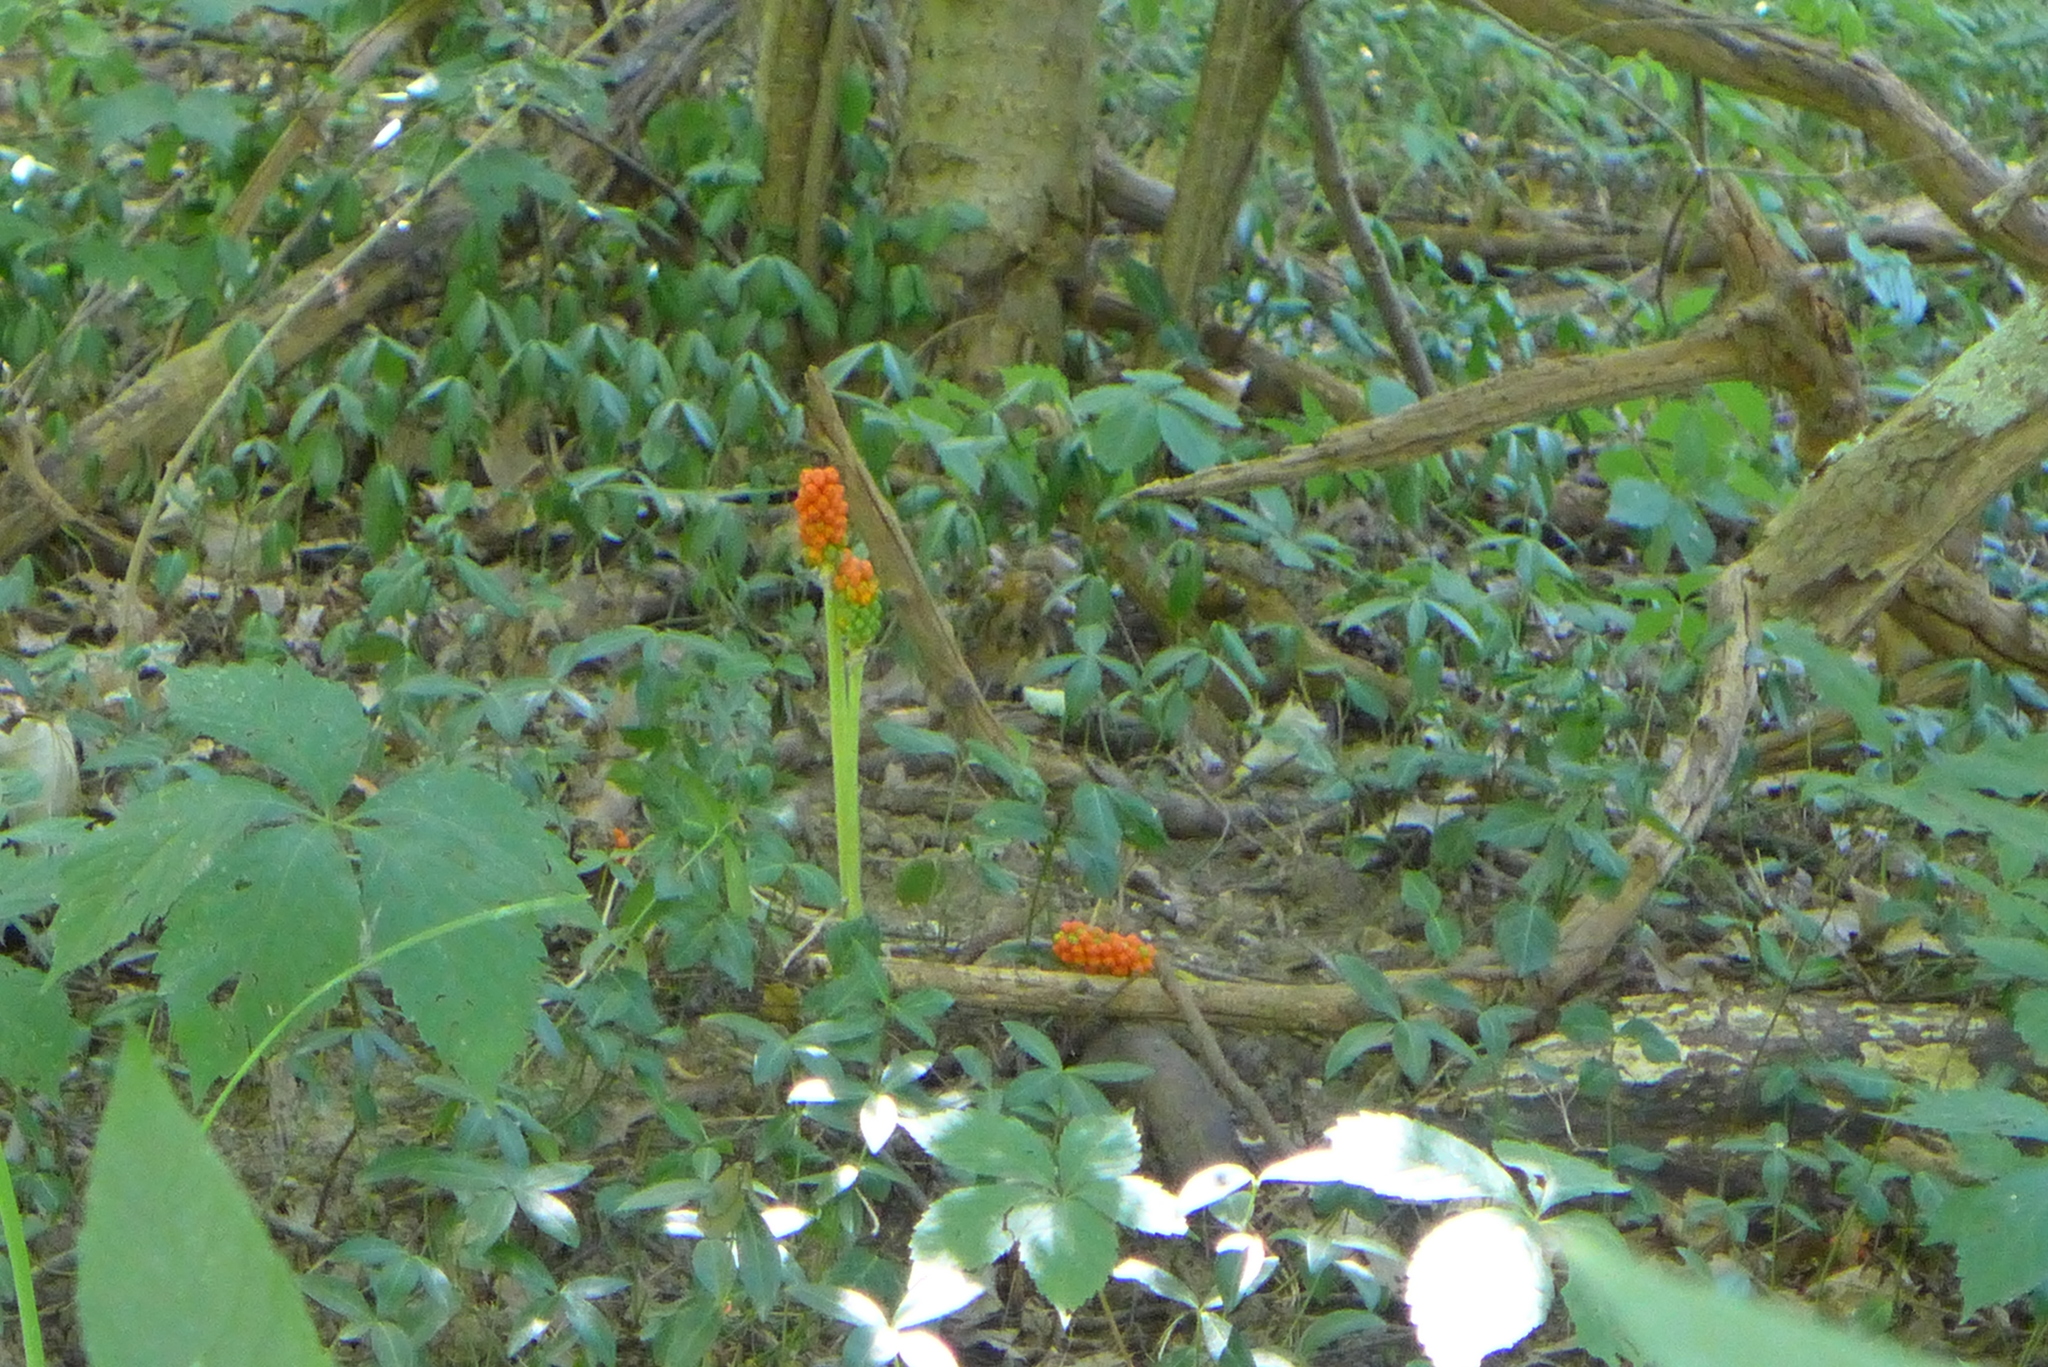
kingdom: Plantae
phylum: Tracheophyta
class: Liliopsida
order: Alismatales
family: Araceae
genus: Arisaema
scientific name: Arisaema triphyllum
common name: Jack-in-the-pulpit
